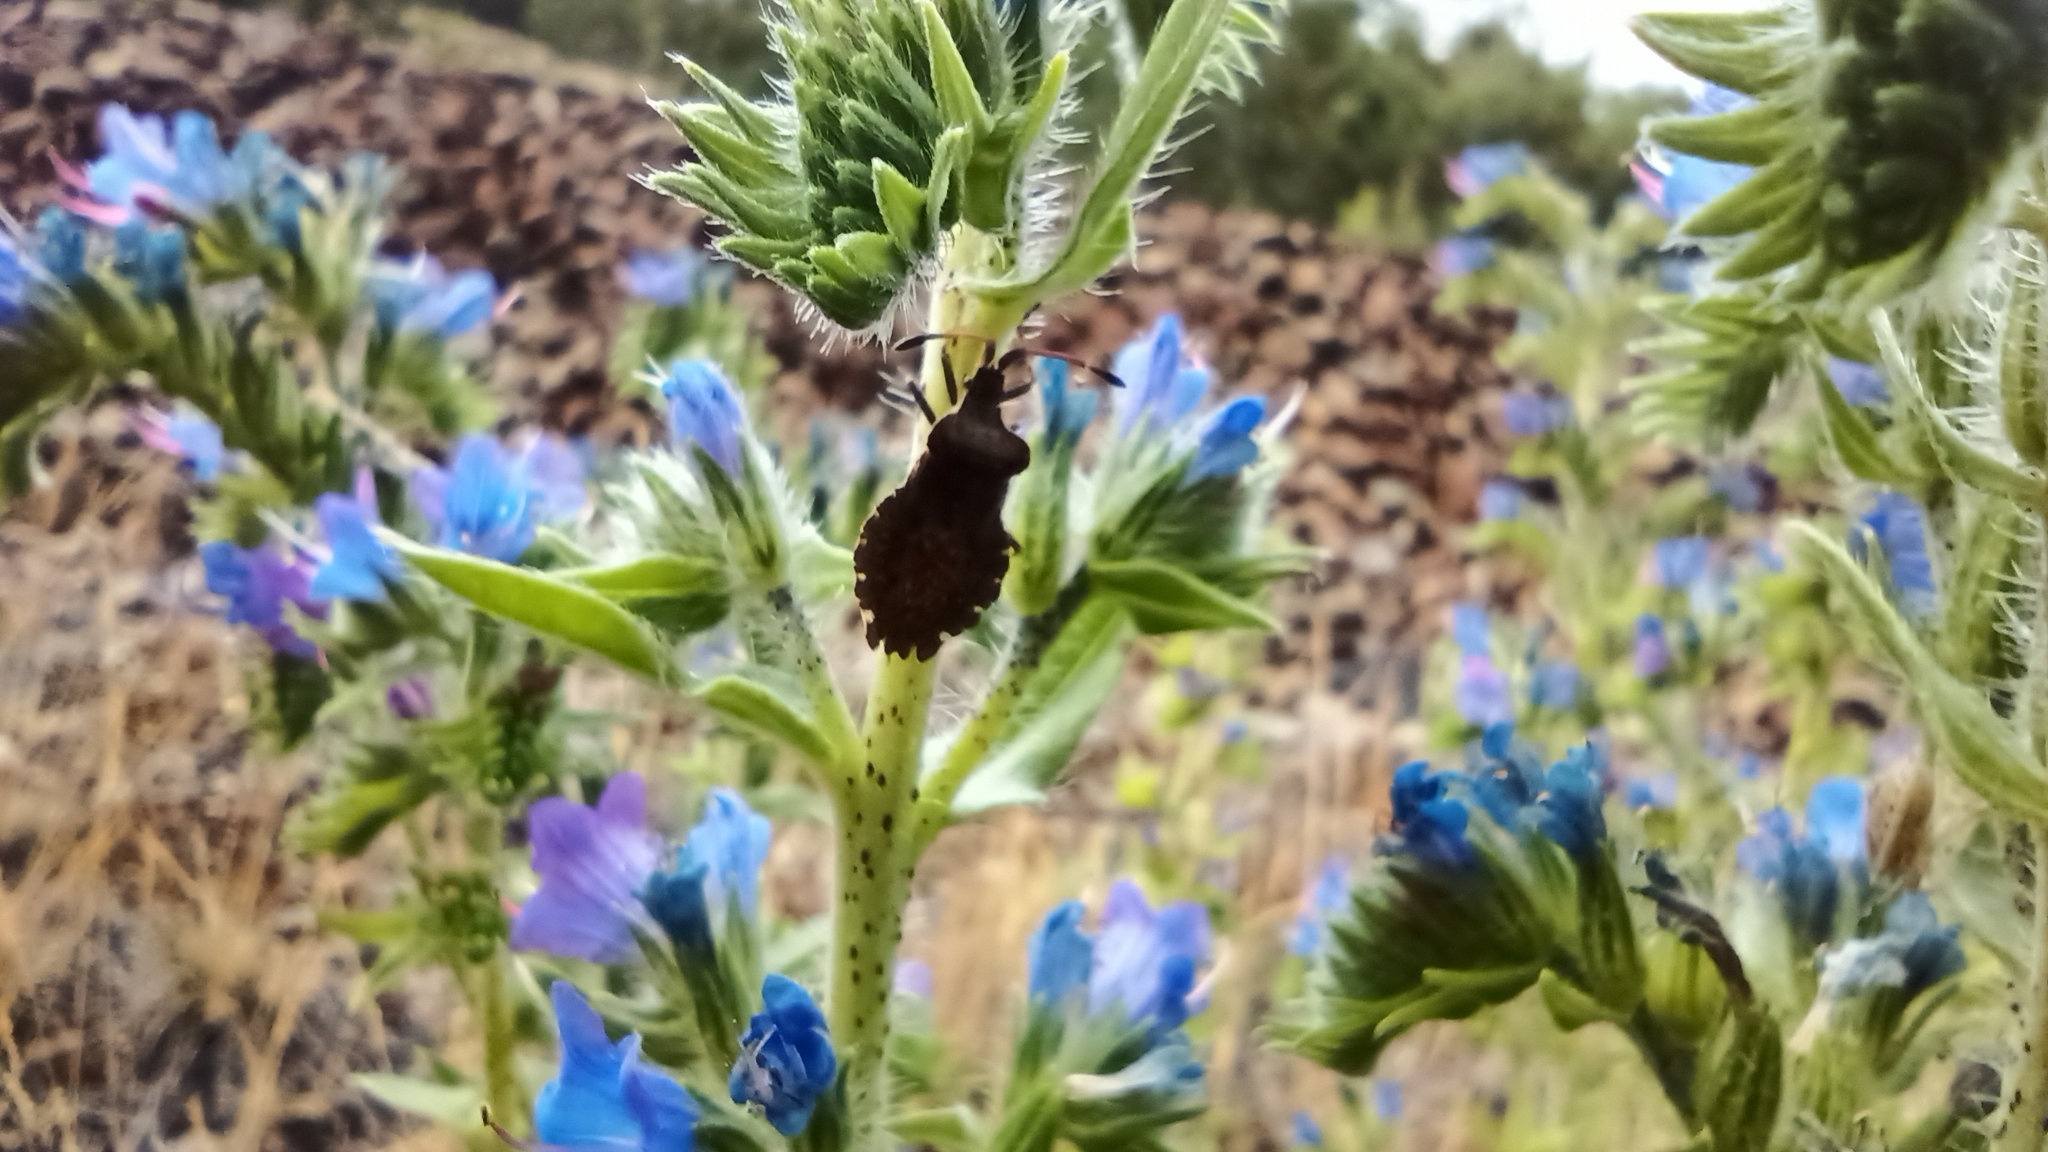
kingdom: Animalia
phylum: Arthropoda
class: Insecta
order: Hemiptera
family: Coreidae
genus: Enoplops
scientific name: Enoplops scapha
